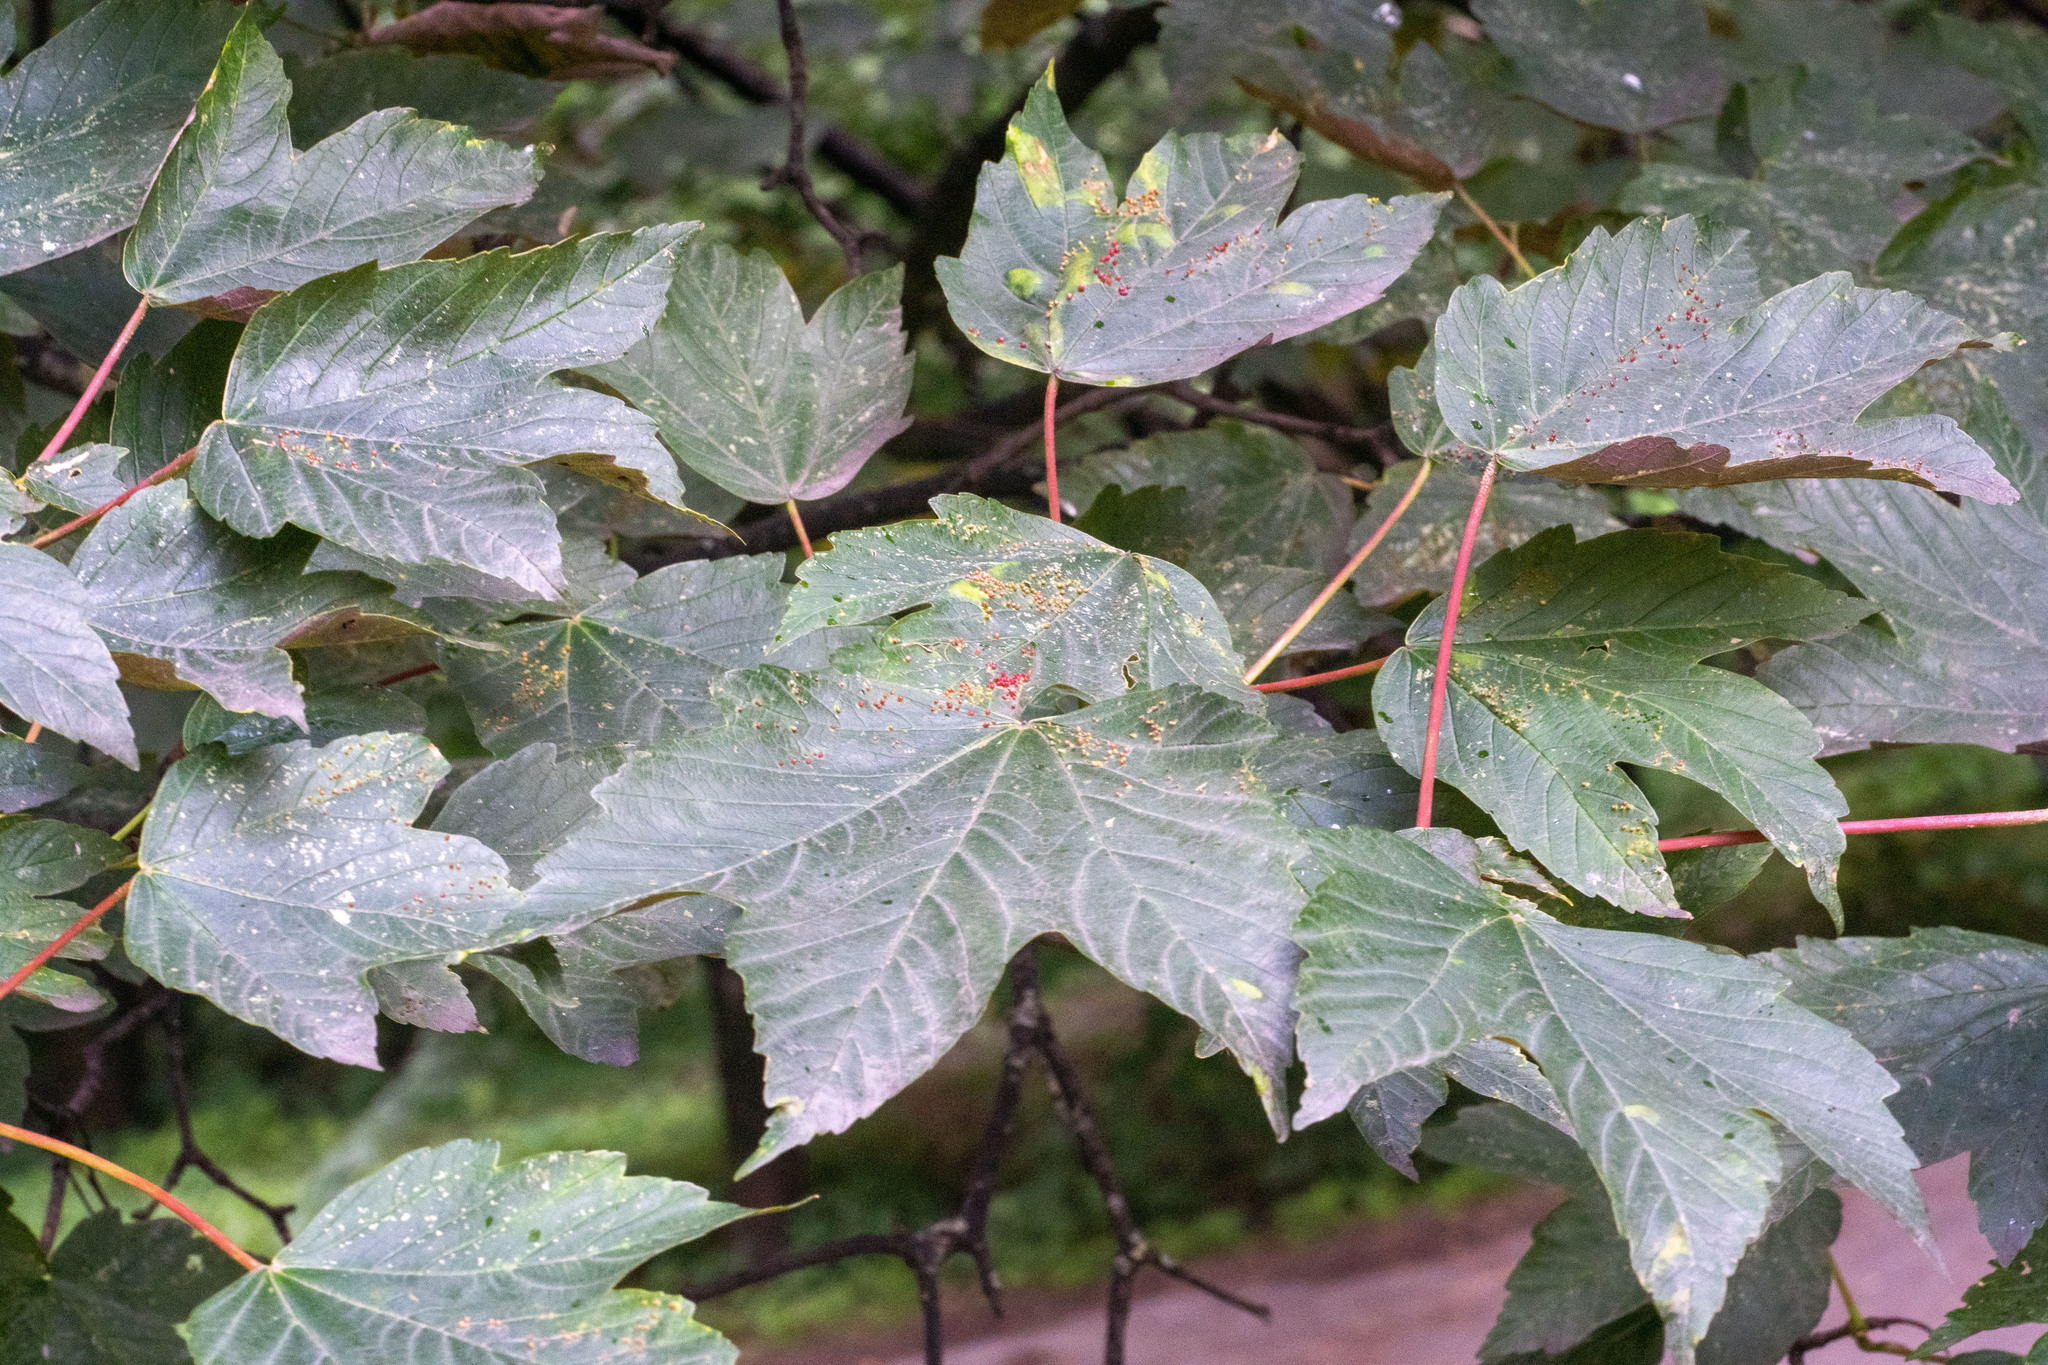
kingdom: Plantae
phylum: Tracheophyta
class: Magnoliopsida
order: Sapindales
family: Sapindaceae
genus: Acer
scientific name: Acer pseudoplatanus
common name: Sycamore
